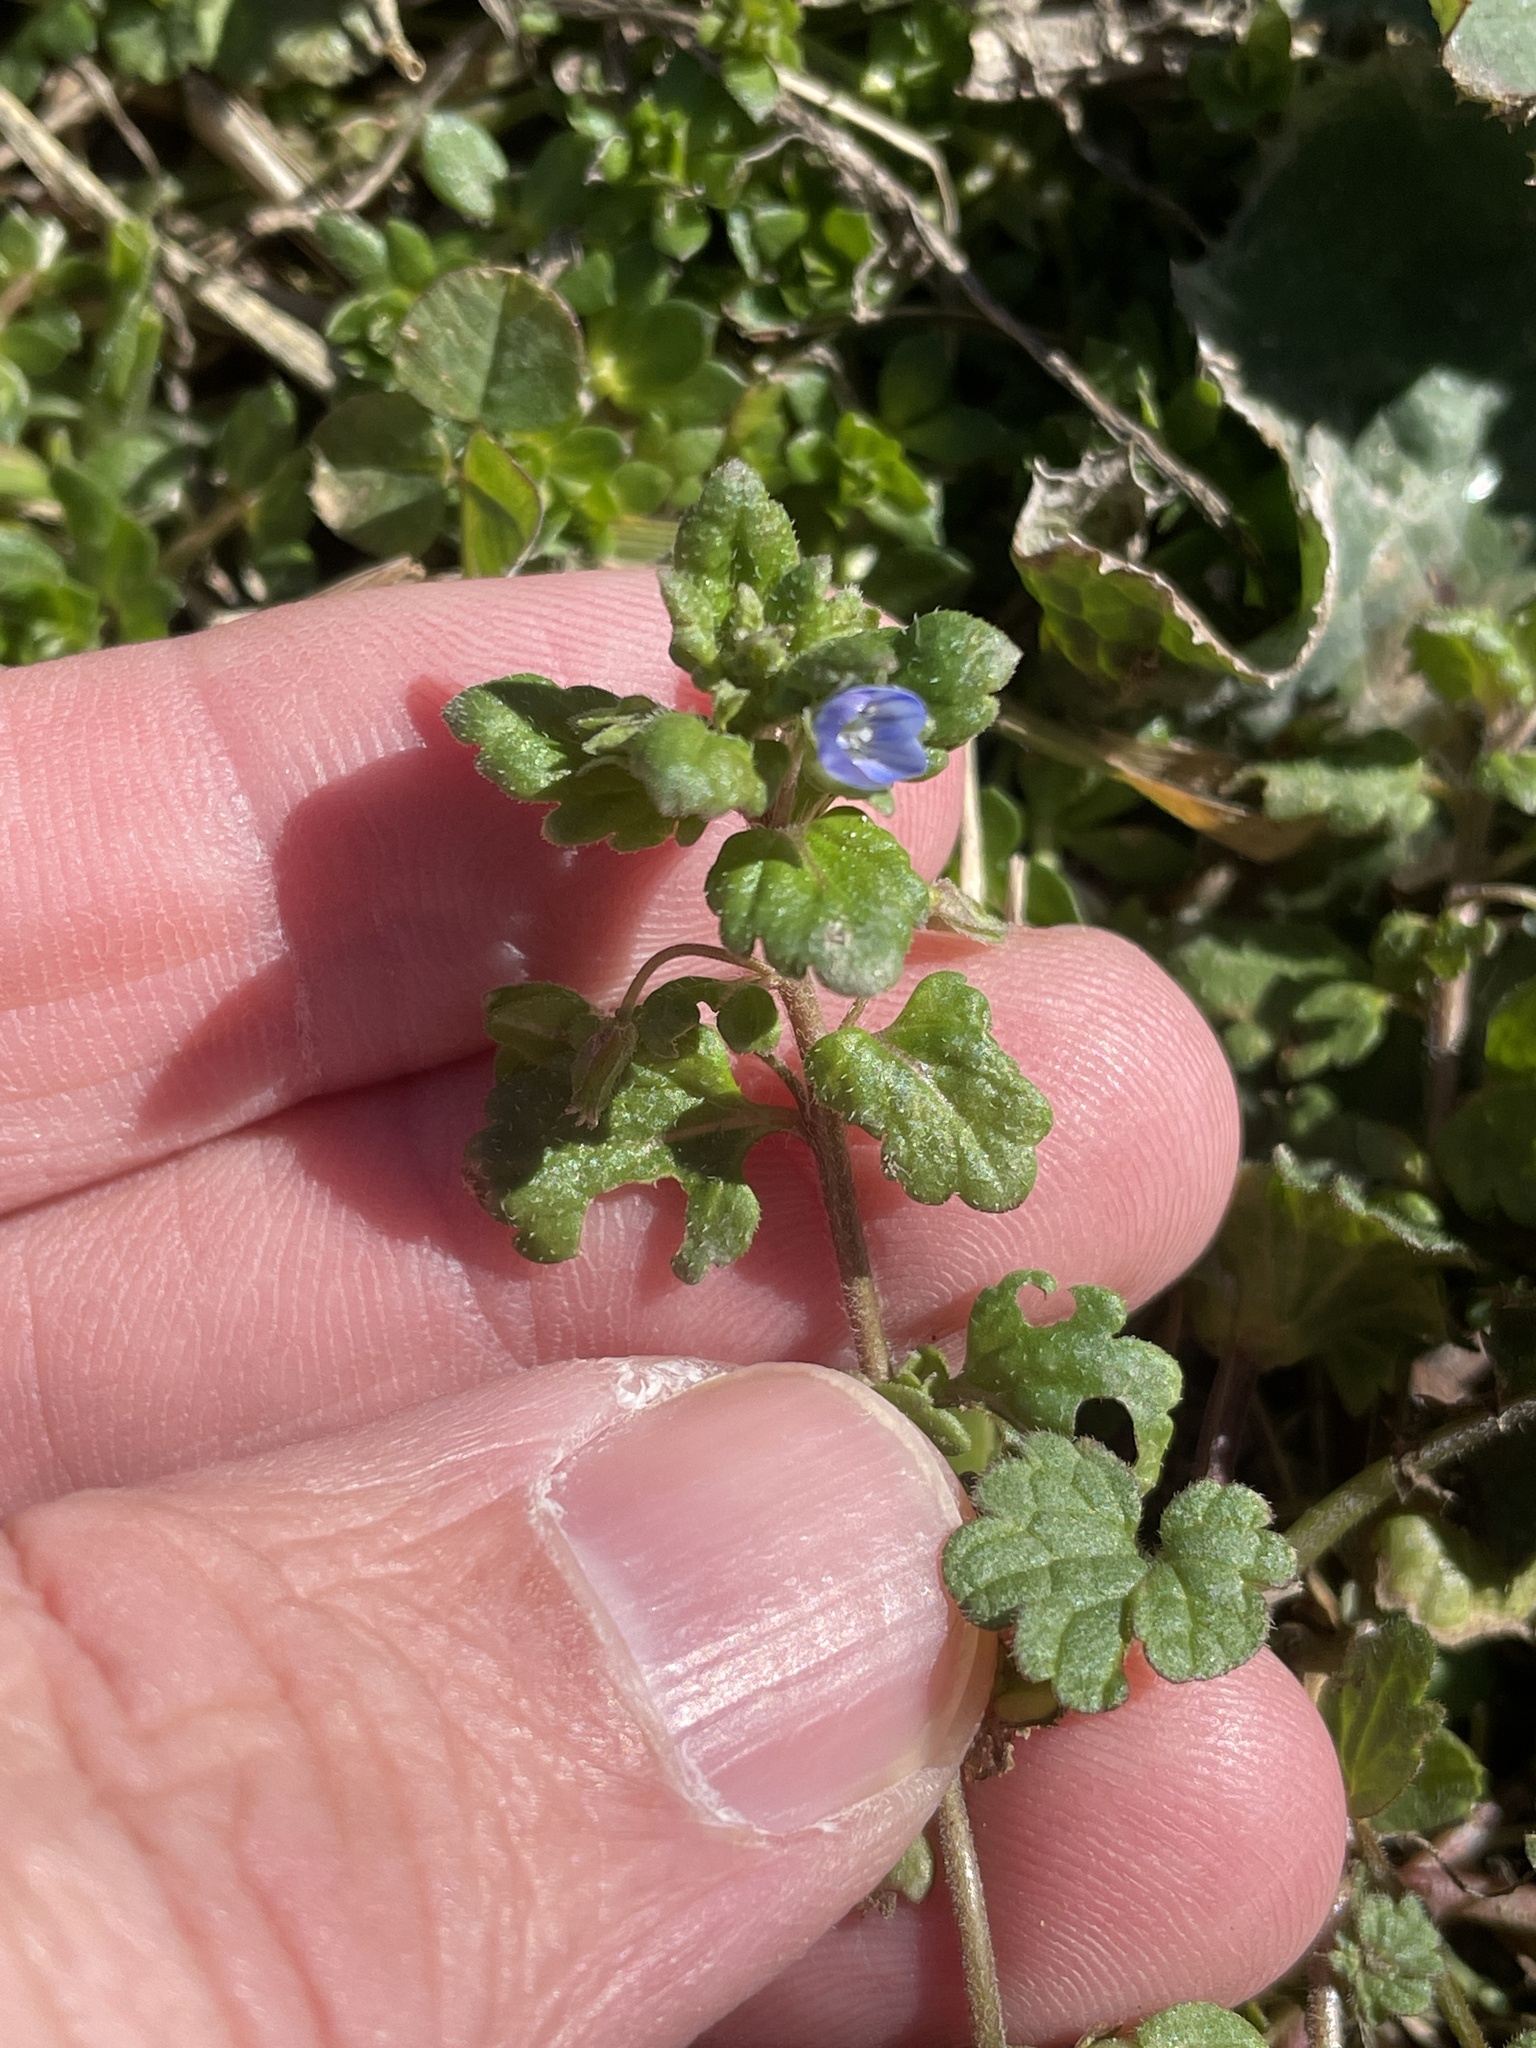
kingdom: Plantae
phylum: Tracheophyta
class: Magnoliopsida
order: Lamiales
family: Plantaginaceae
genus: Veronica
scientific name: Veronica polita
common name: Grey field-speedwell
